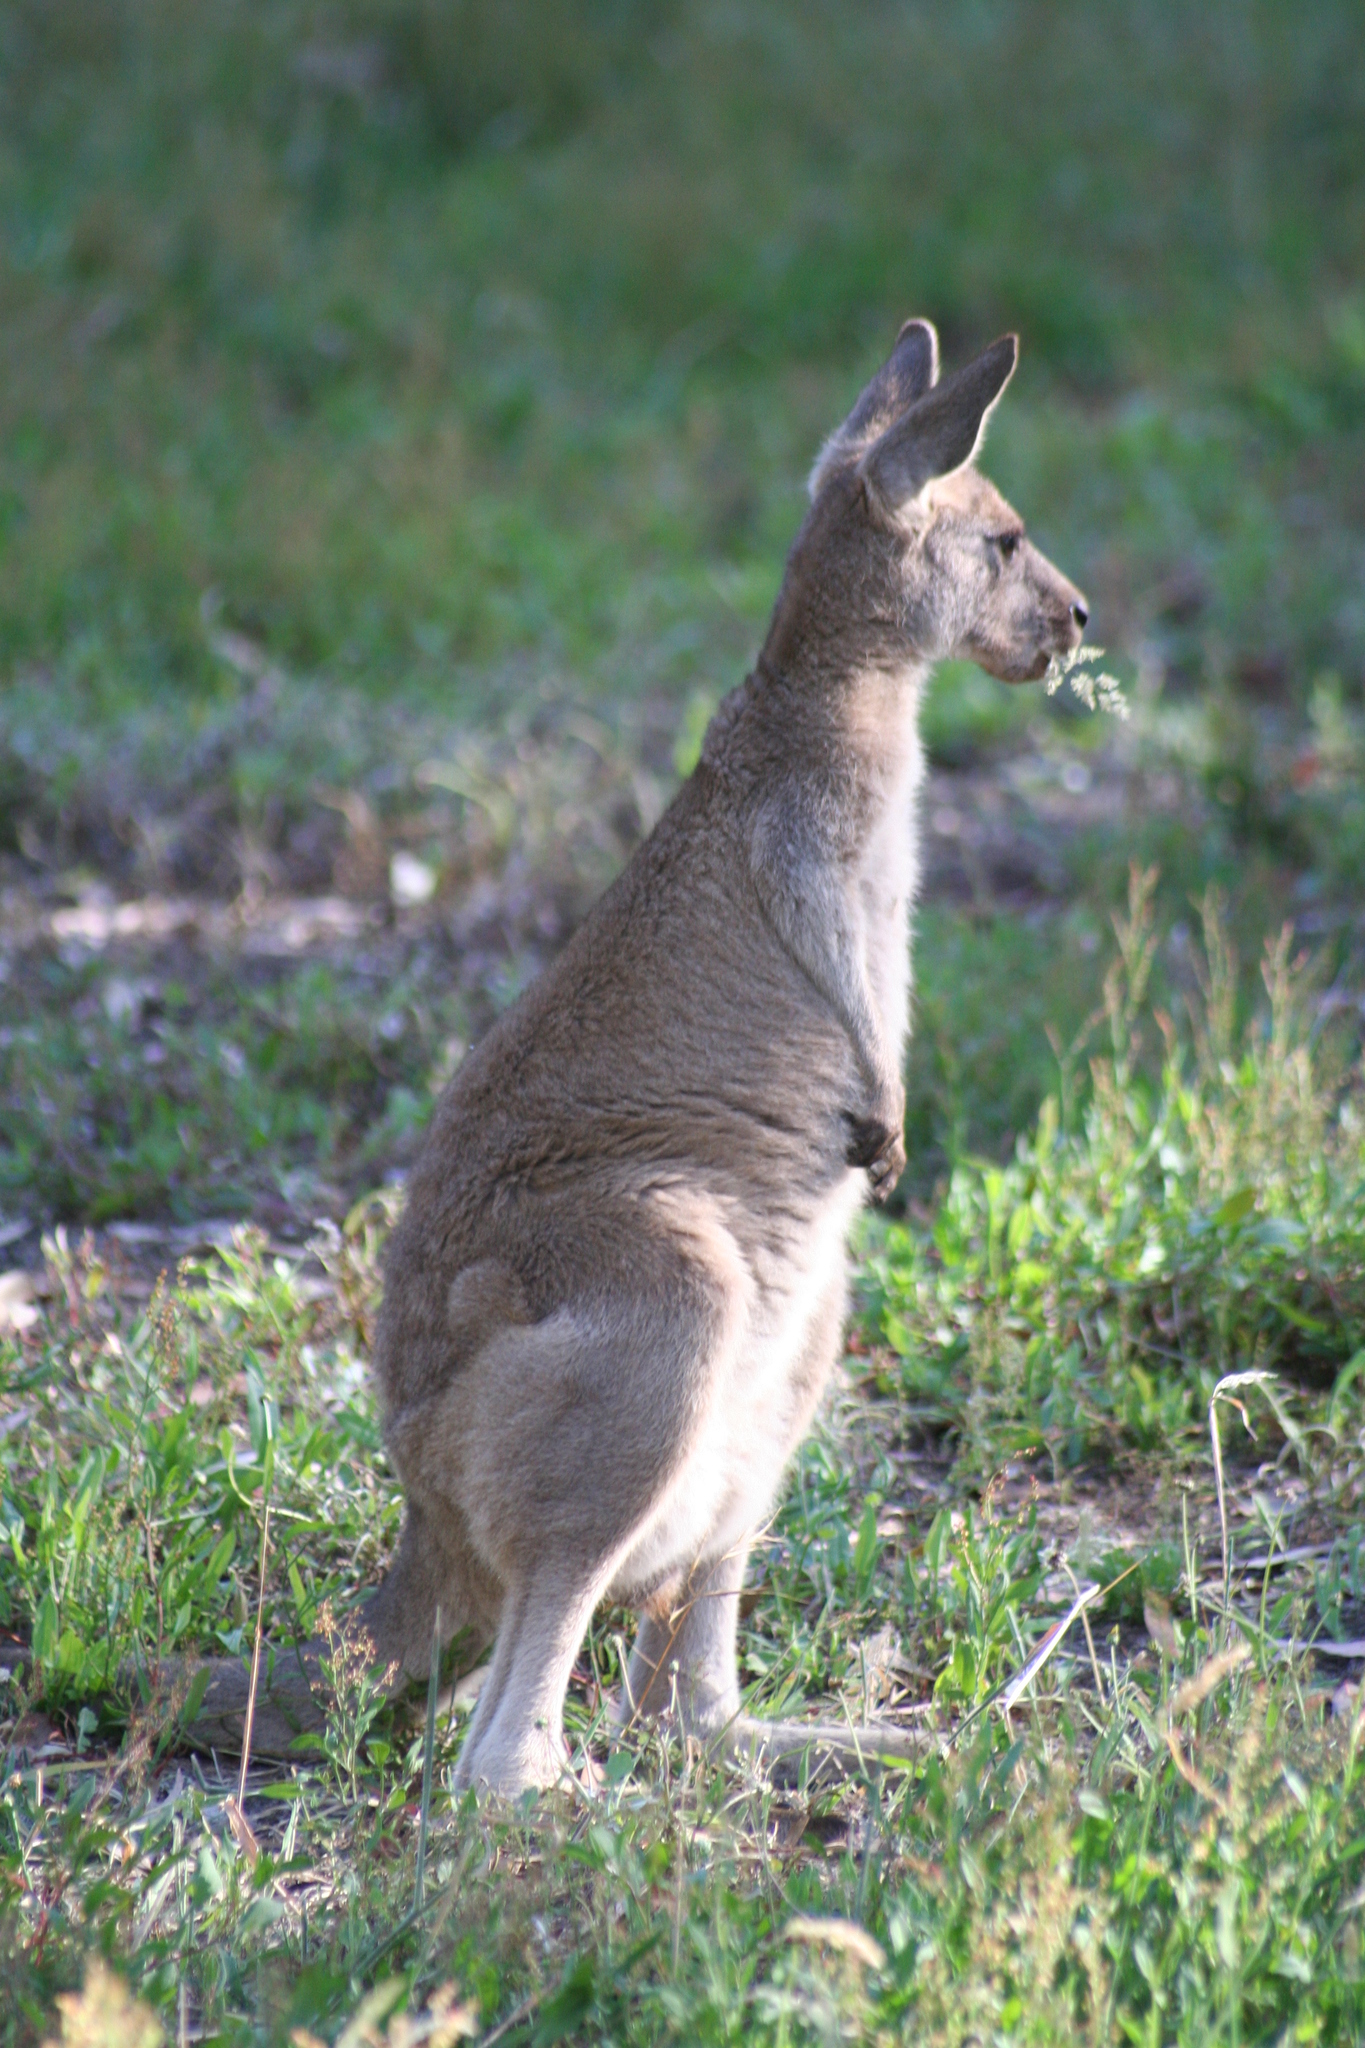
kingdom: Animalia
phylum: Chordata
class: Mammalia
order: Diprotodontia
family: Macropodidae
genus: Macropus
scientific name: Macropus giganteus
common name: Eastern grey kangaroo
